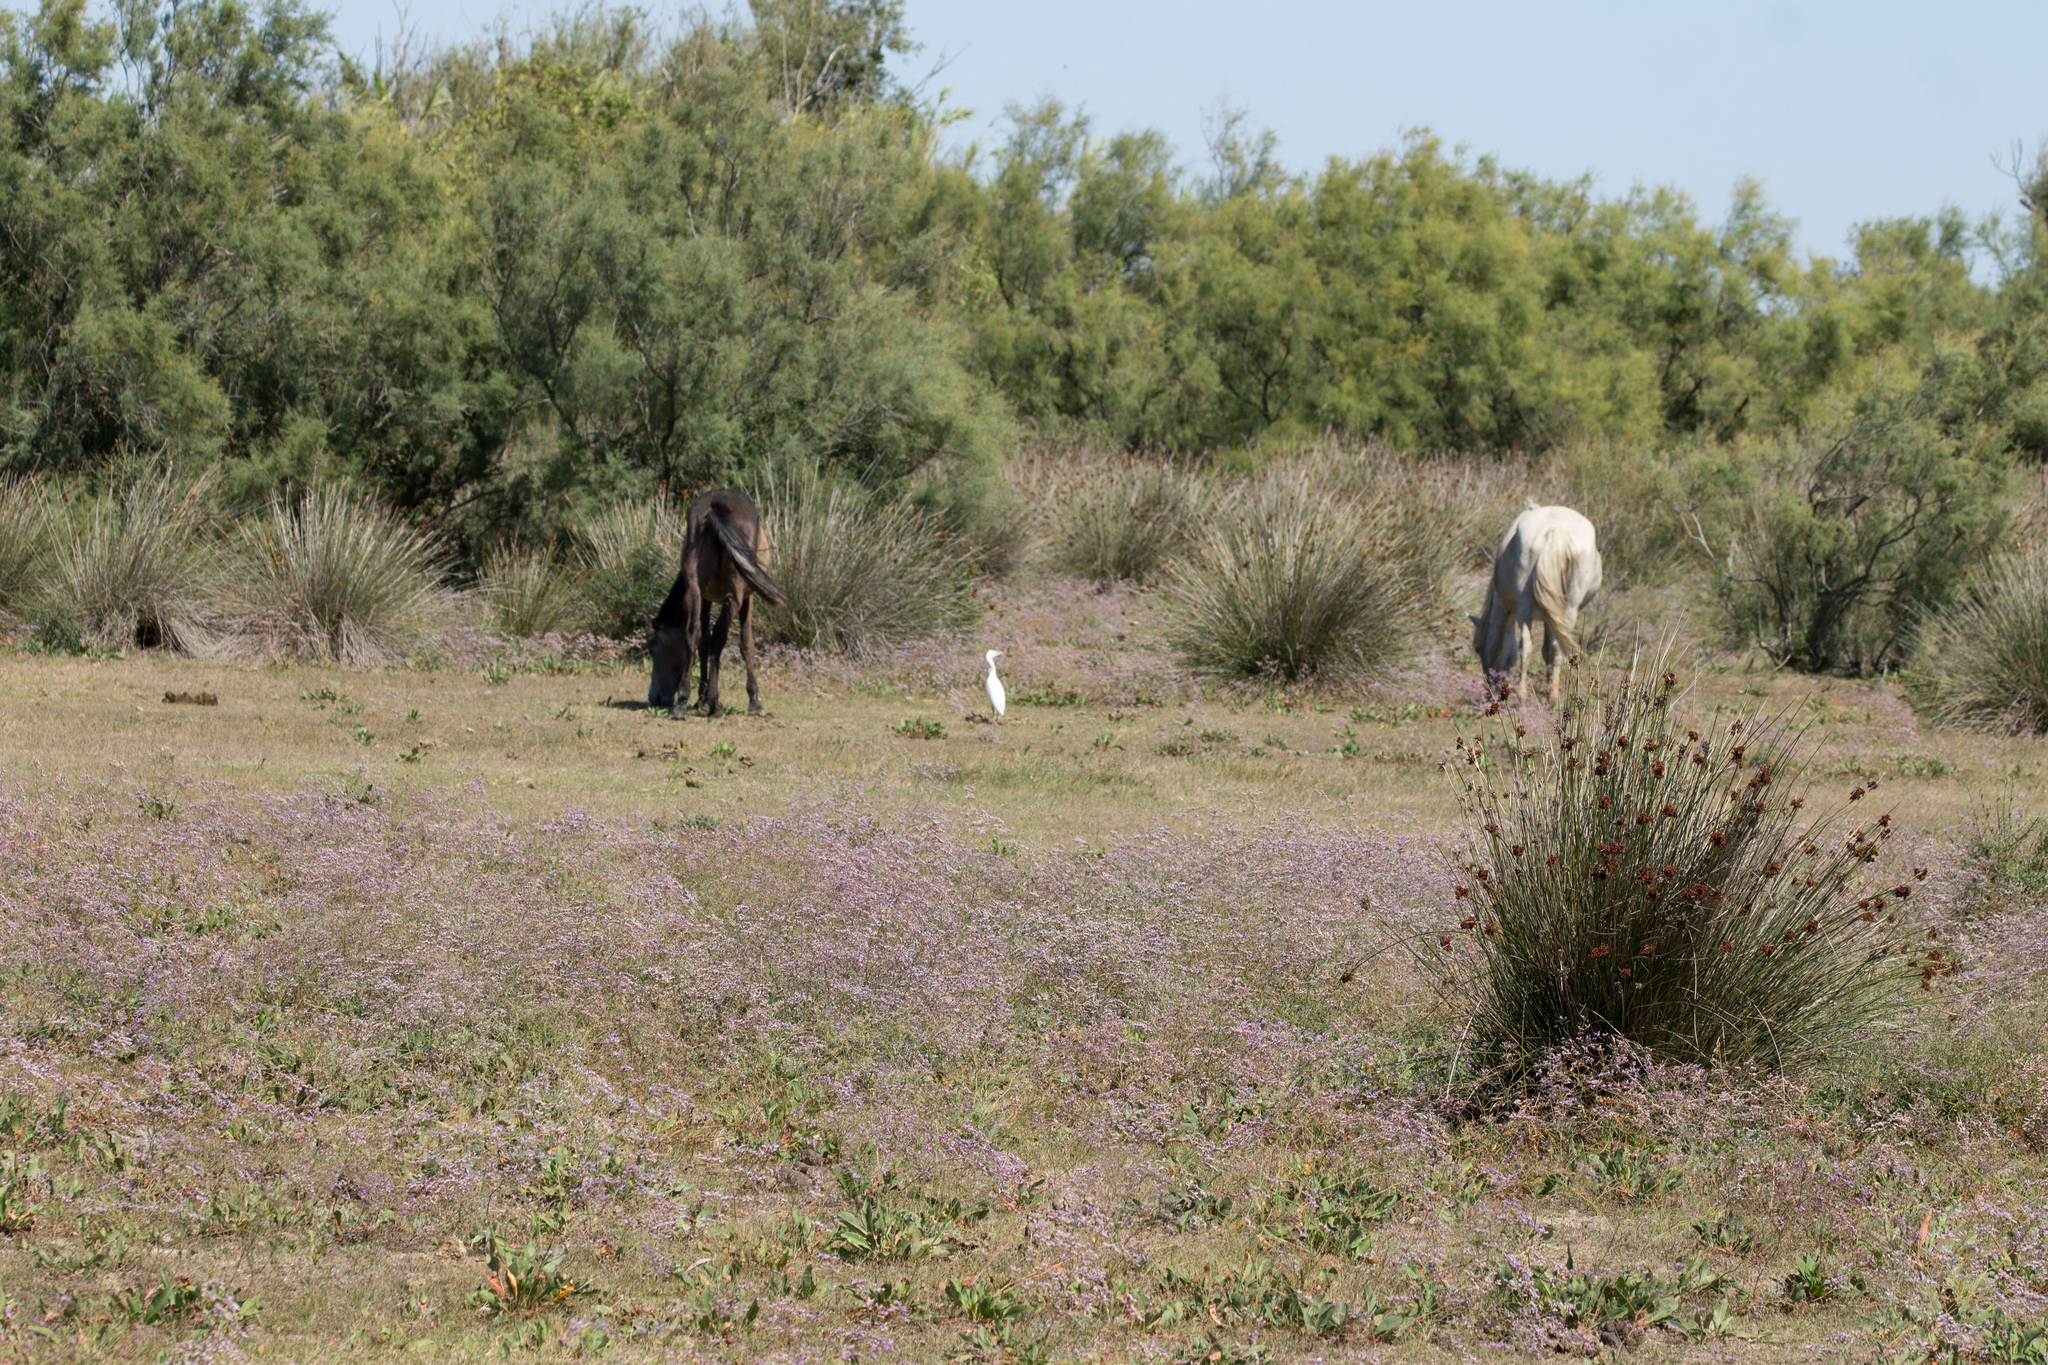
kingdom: Animalia
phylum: Chordata
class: Aves
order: Pelecaniformes
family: Ardeidae
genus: Bubulcus
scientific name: Bubulcus ibis
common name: Cattle egret
